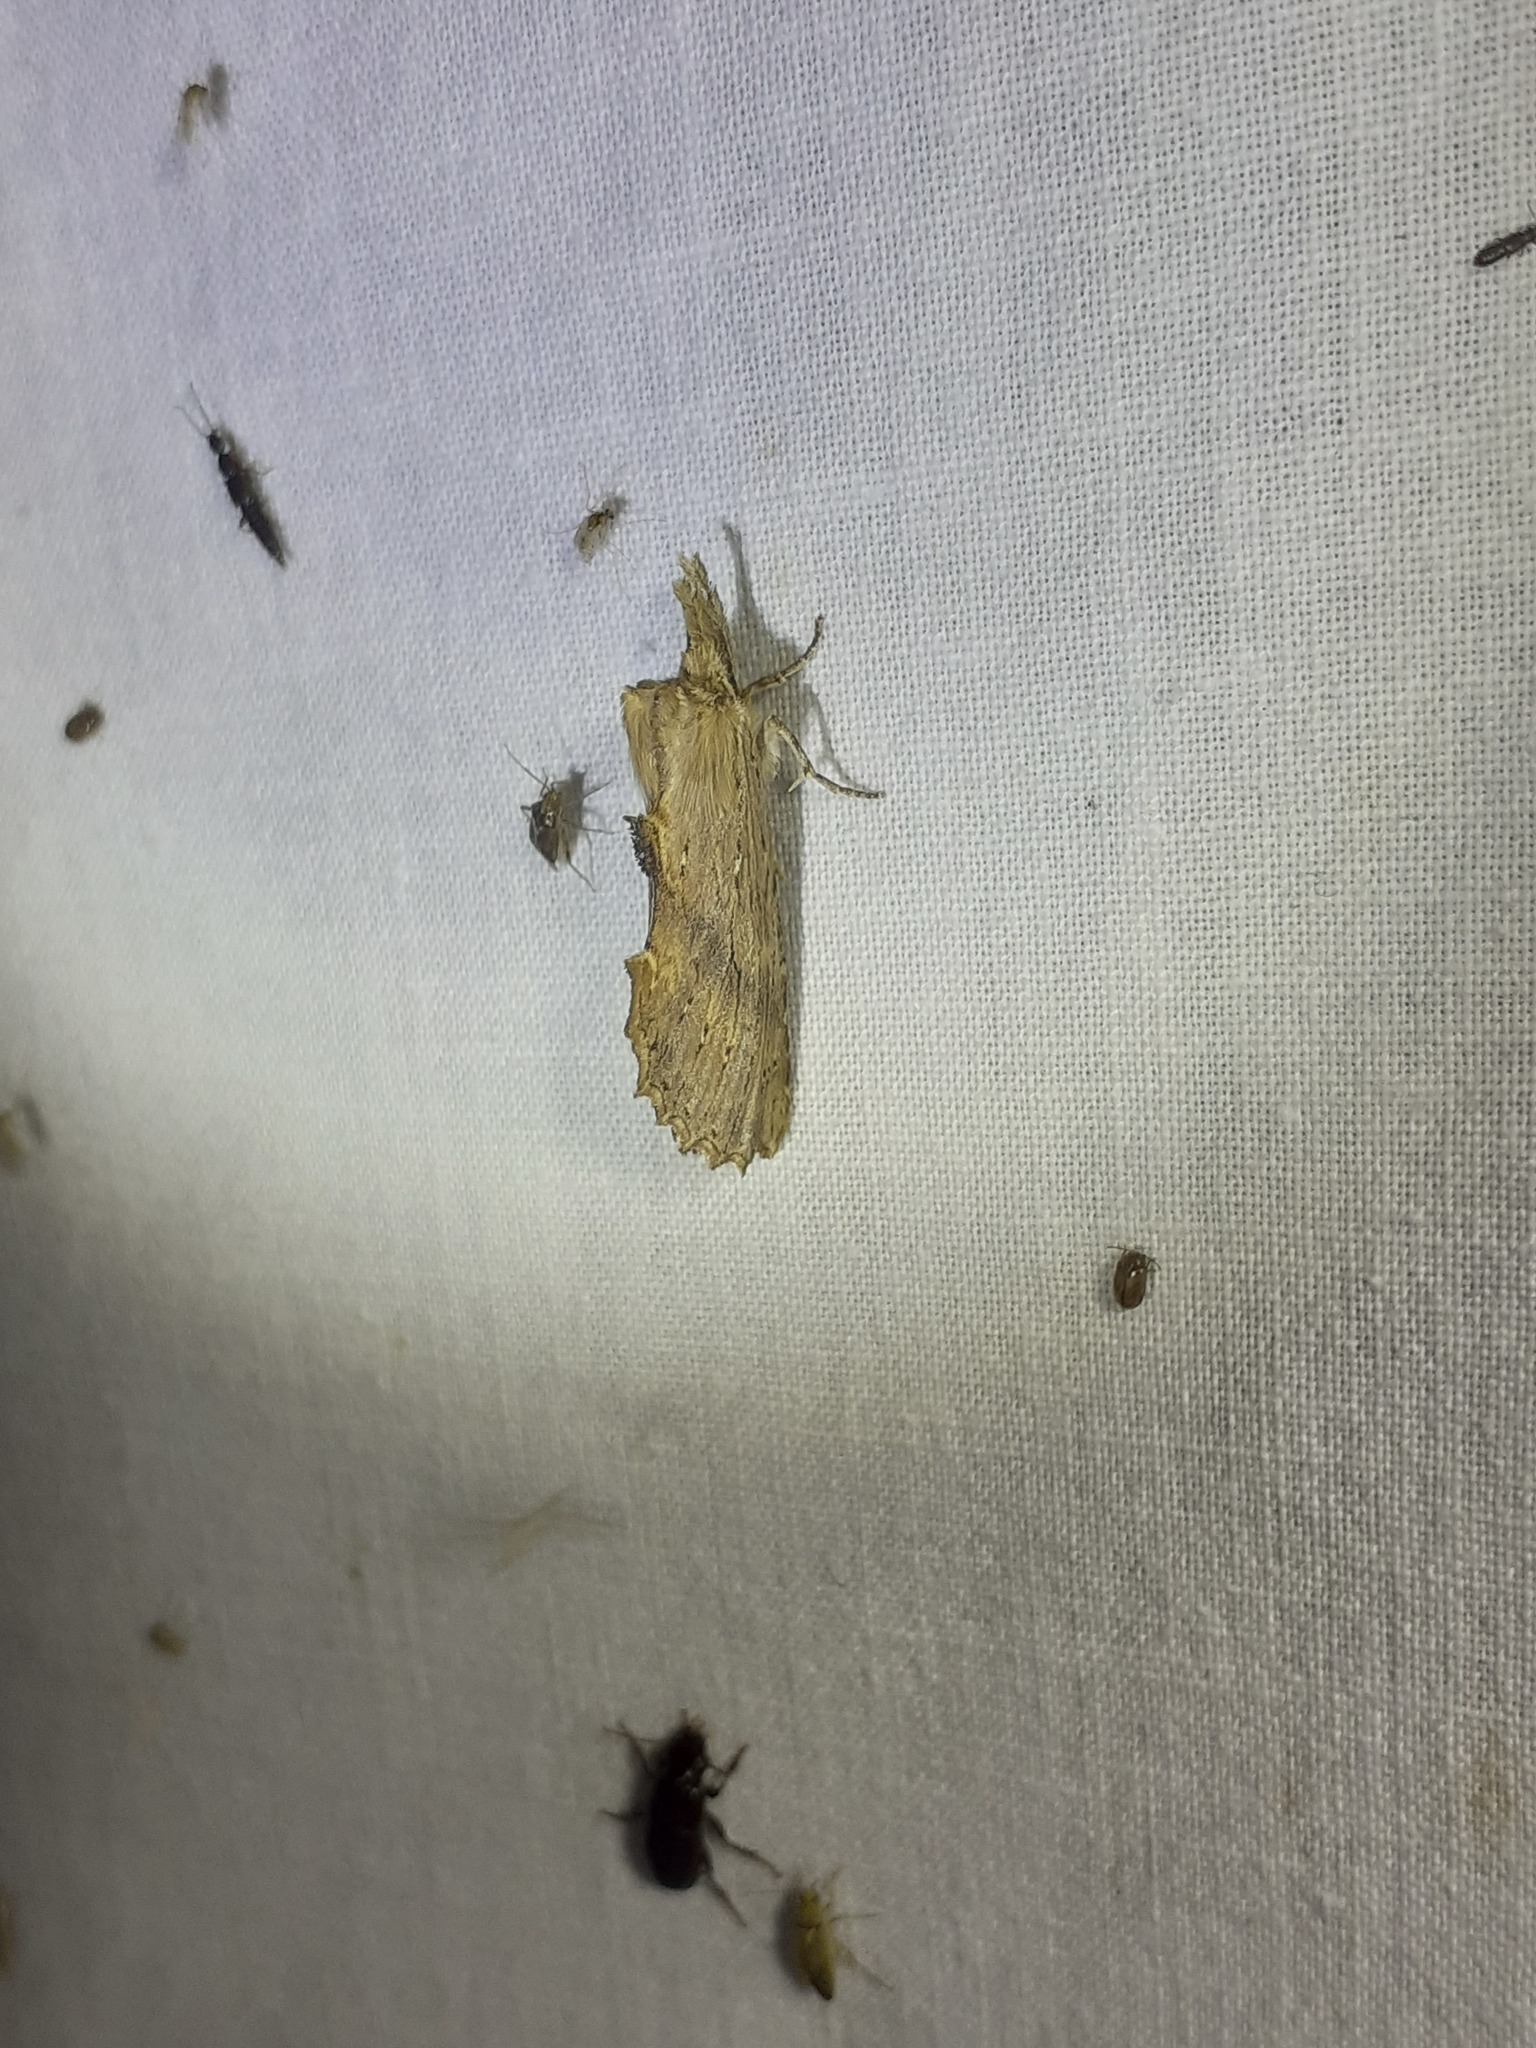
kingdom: Animalia
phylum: Arthropoda
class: Insecta
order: Lepidoptera
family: Notodontidae
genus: Pterostoma
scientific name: Pterostoma palpina
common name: Pale prominent
